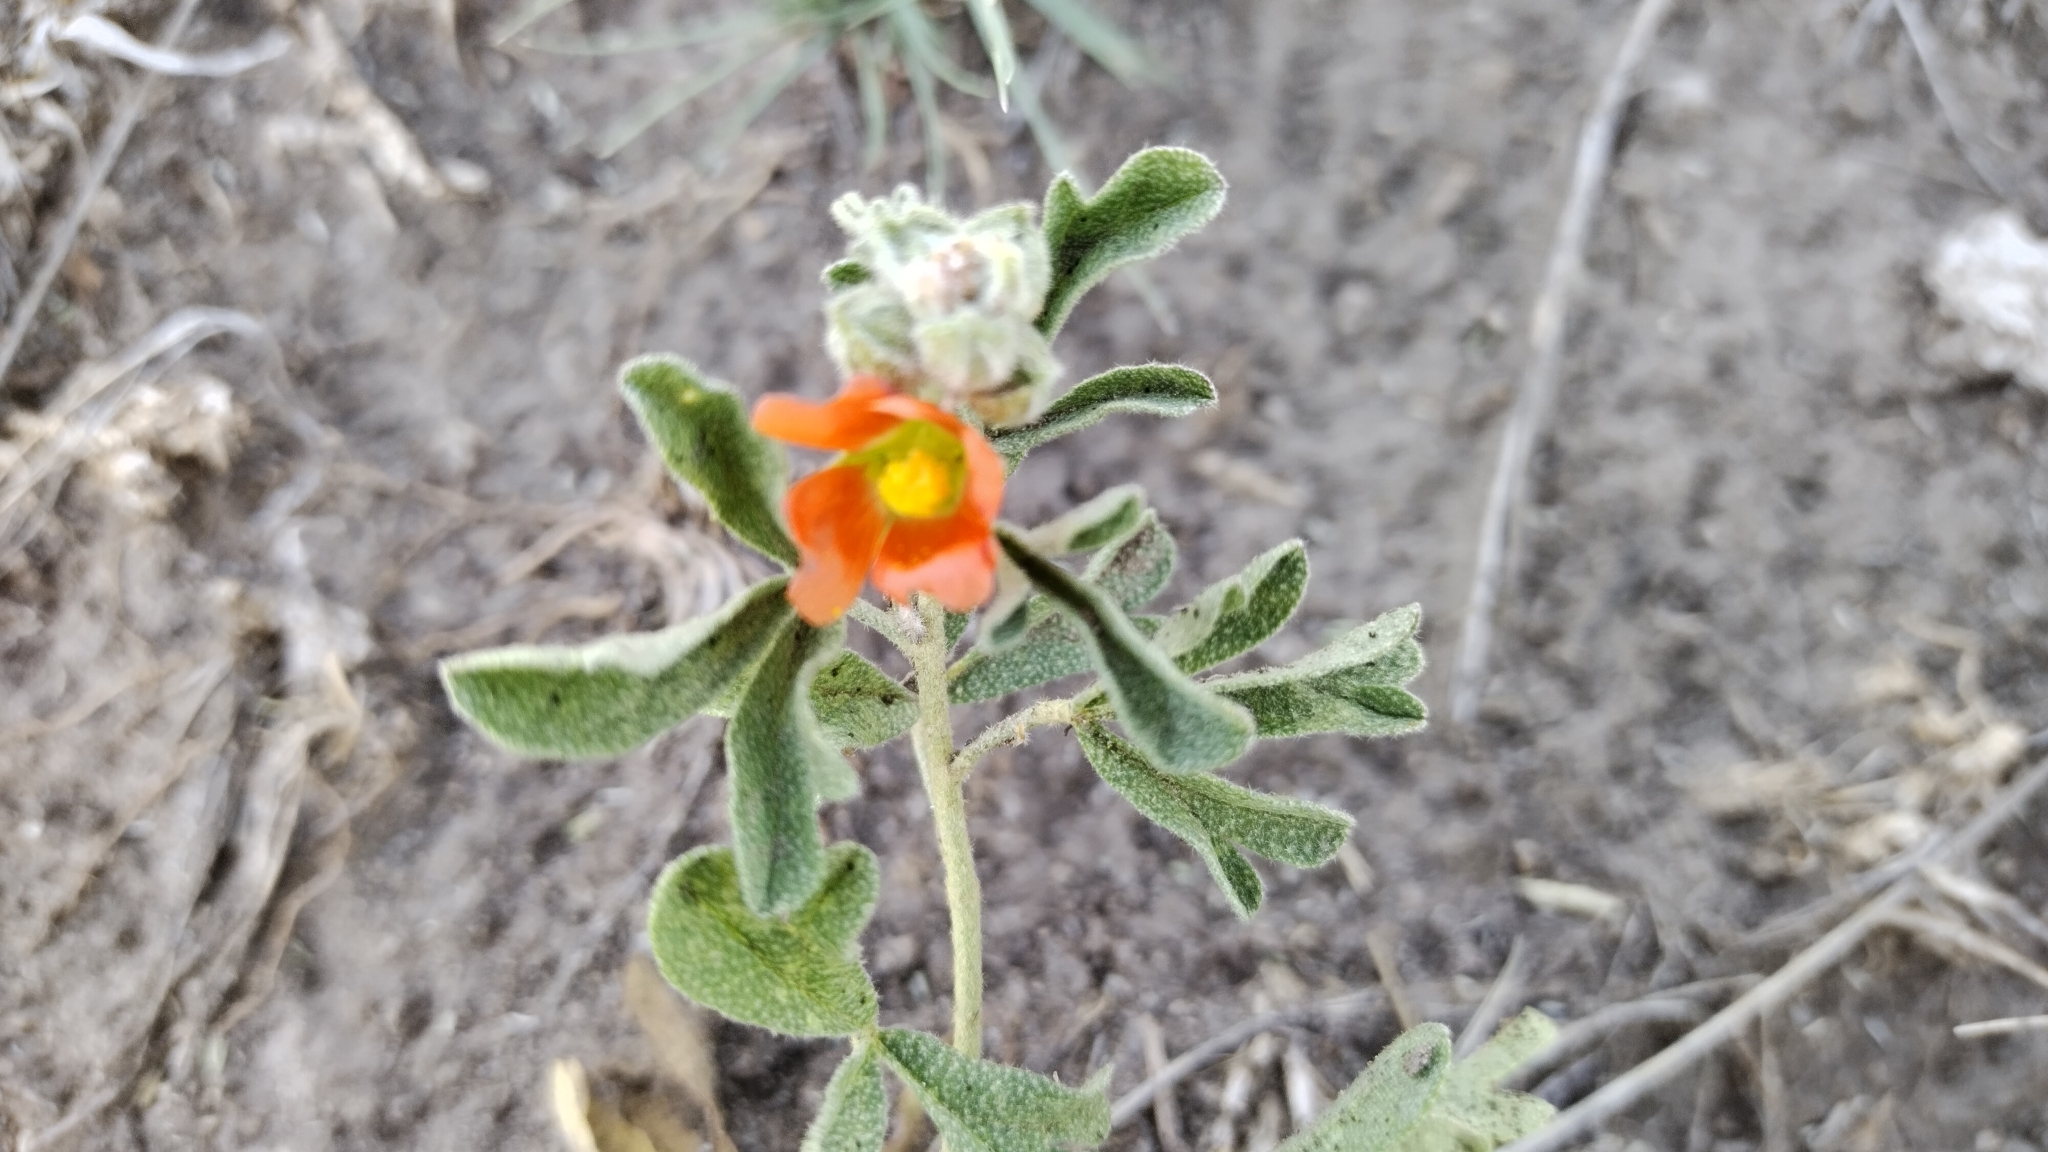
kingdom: Plantae
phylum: Tracheophyta
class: Magnoliopsida
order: Malvales
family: Malvaceae
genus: Sphaeralcea
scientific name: Sphaeralcea coccinea
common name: Moss-rose
